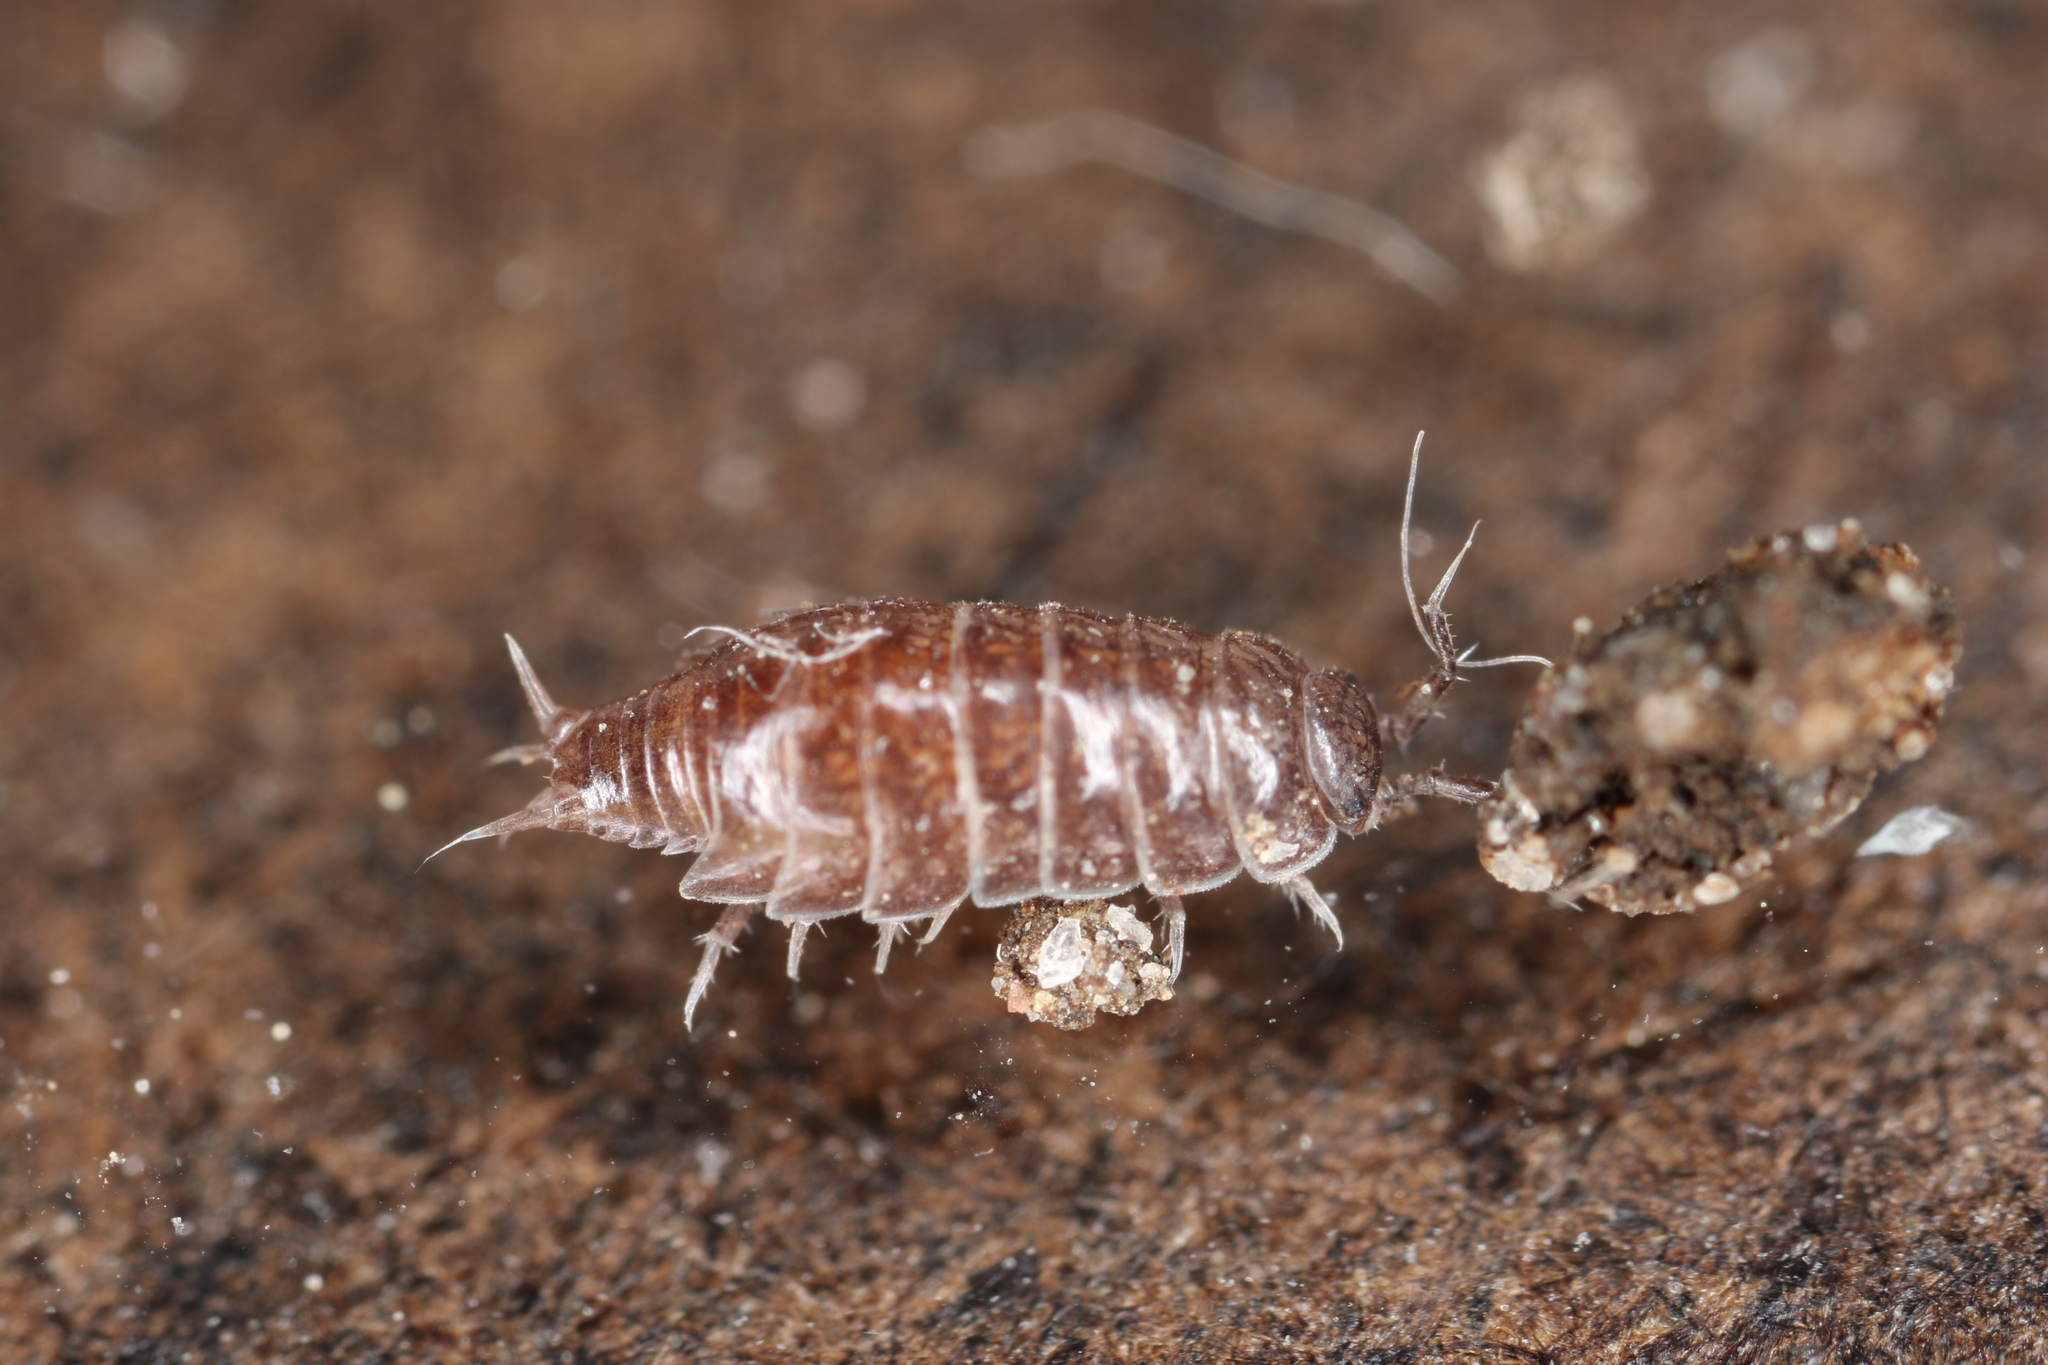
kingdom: Animalia
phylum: Arthropoda
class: Malacostraca
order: Isopoda
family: Trichoniscidae
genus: Trichoniscus
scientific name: Trichoniscus
